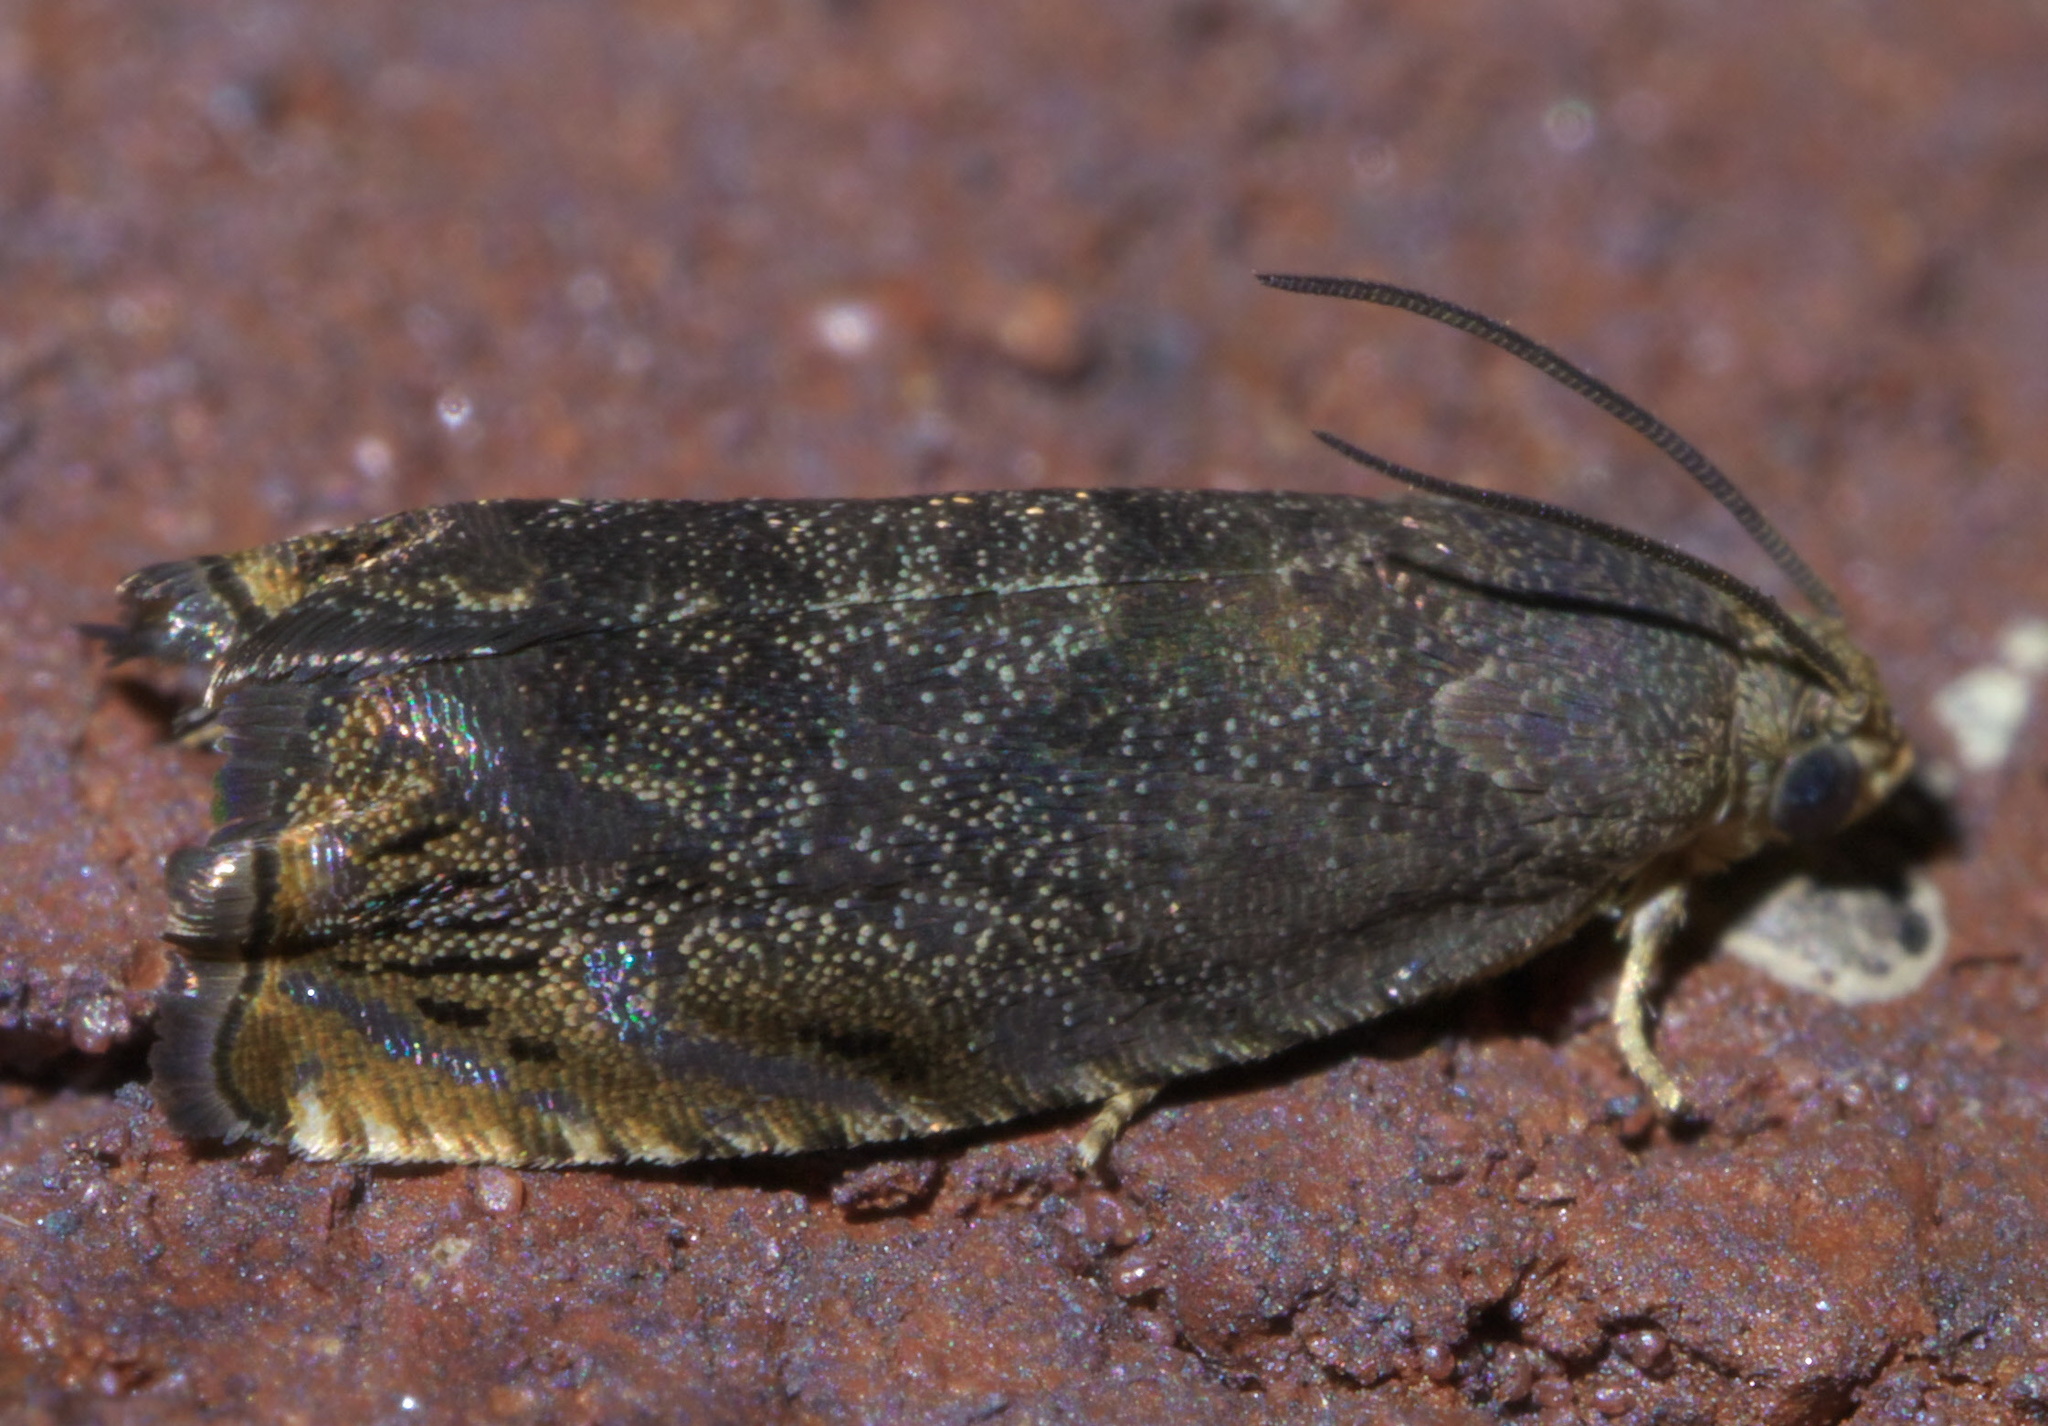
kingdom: Animalia
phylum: Arthropoda
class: Insecta
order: Lepidoptera
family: Tortricidae
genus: Cydia
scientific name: Cydia caryana
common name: Hickory shuckworm moth
